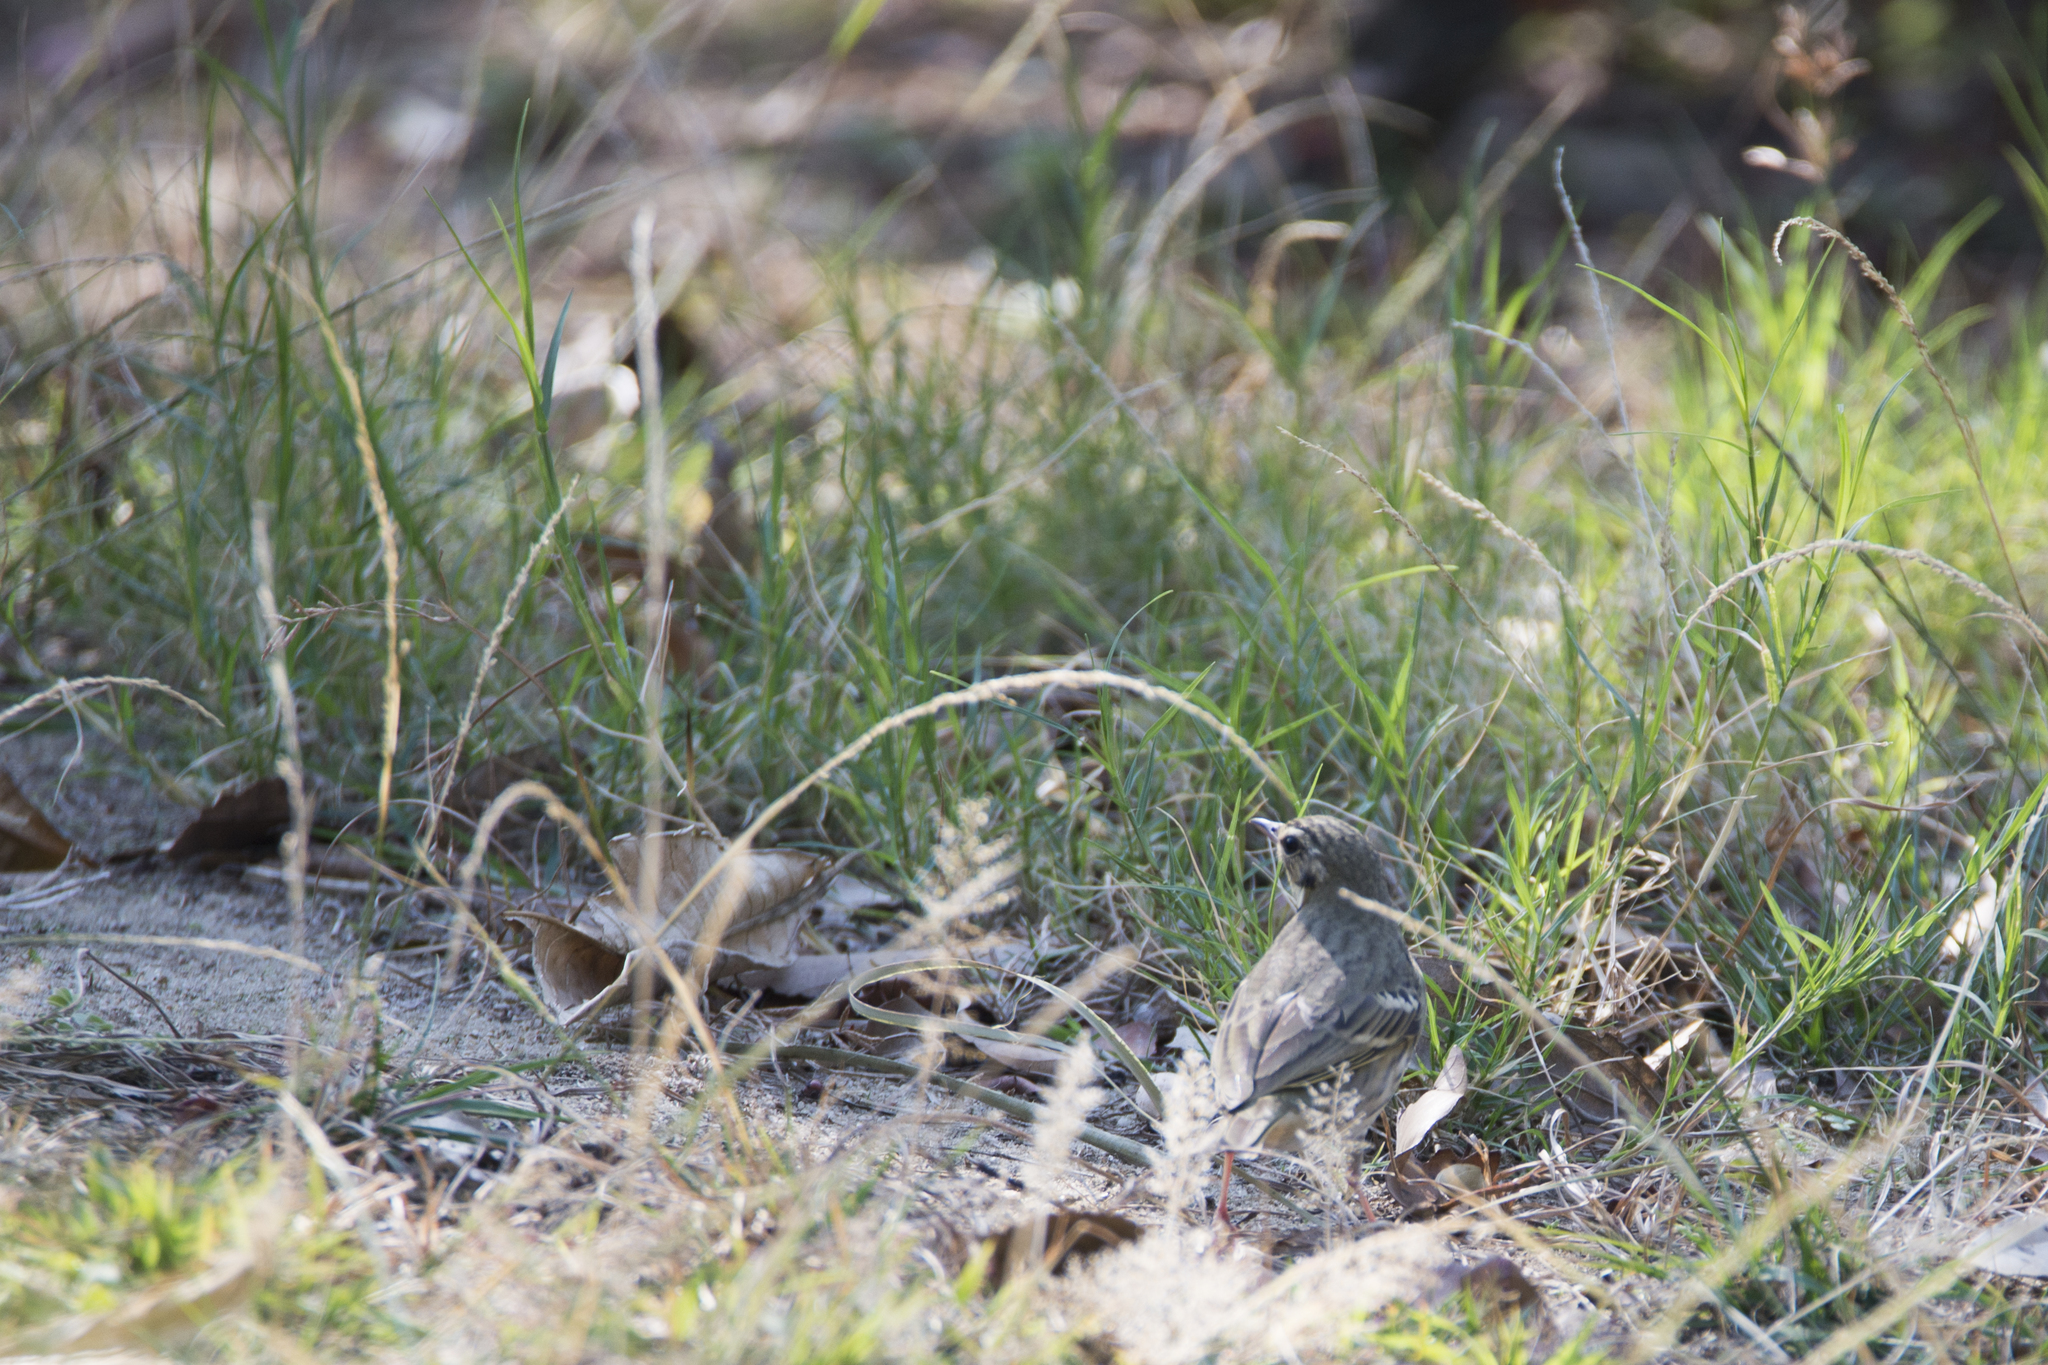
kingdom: Animalia
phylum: Chordata
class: Aves
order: Passeriformes
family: Motacillidae
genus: Anthus
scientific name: Anthus hodgsoni
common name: Olive-backed pipit
